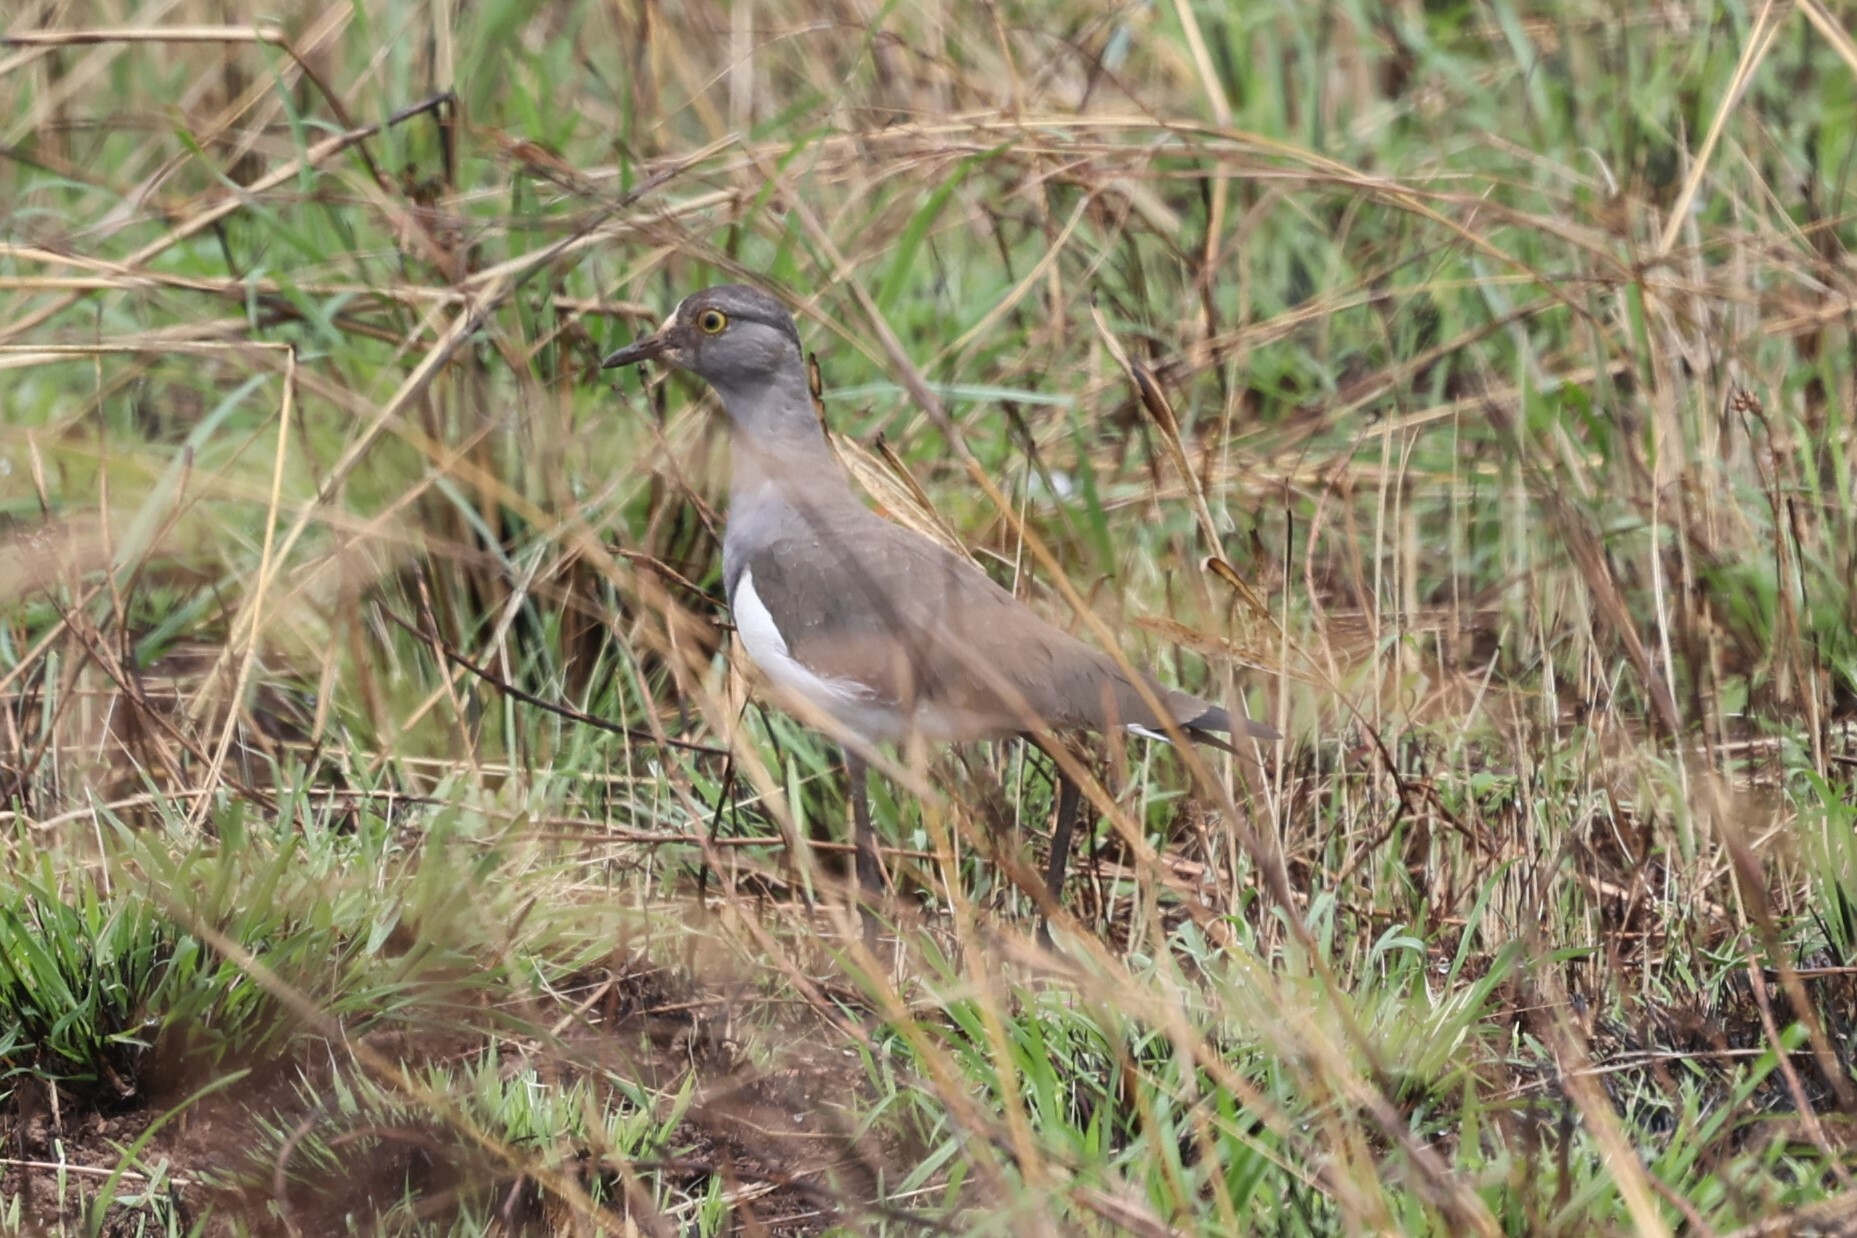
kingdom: Animalia
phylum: Chordata
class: Aves
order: Charadriiformes
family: Charadriidae
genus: Vanellus
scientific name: Vanellus lugubris
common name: Senegal lapwing
